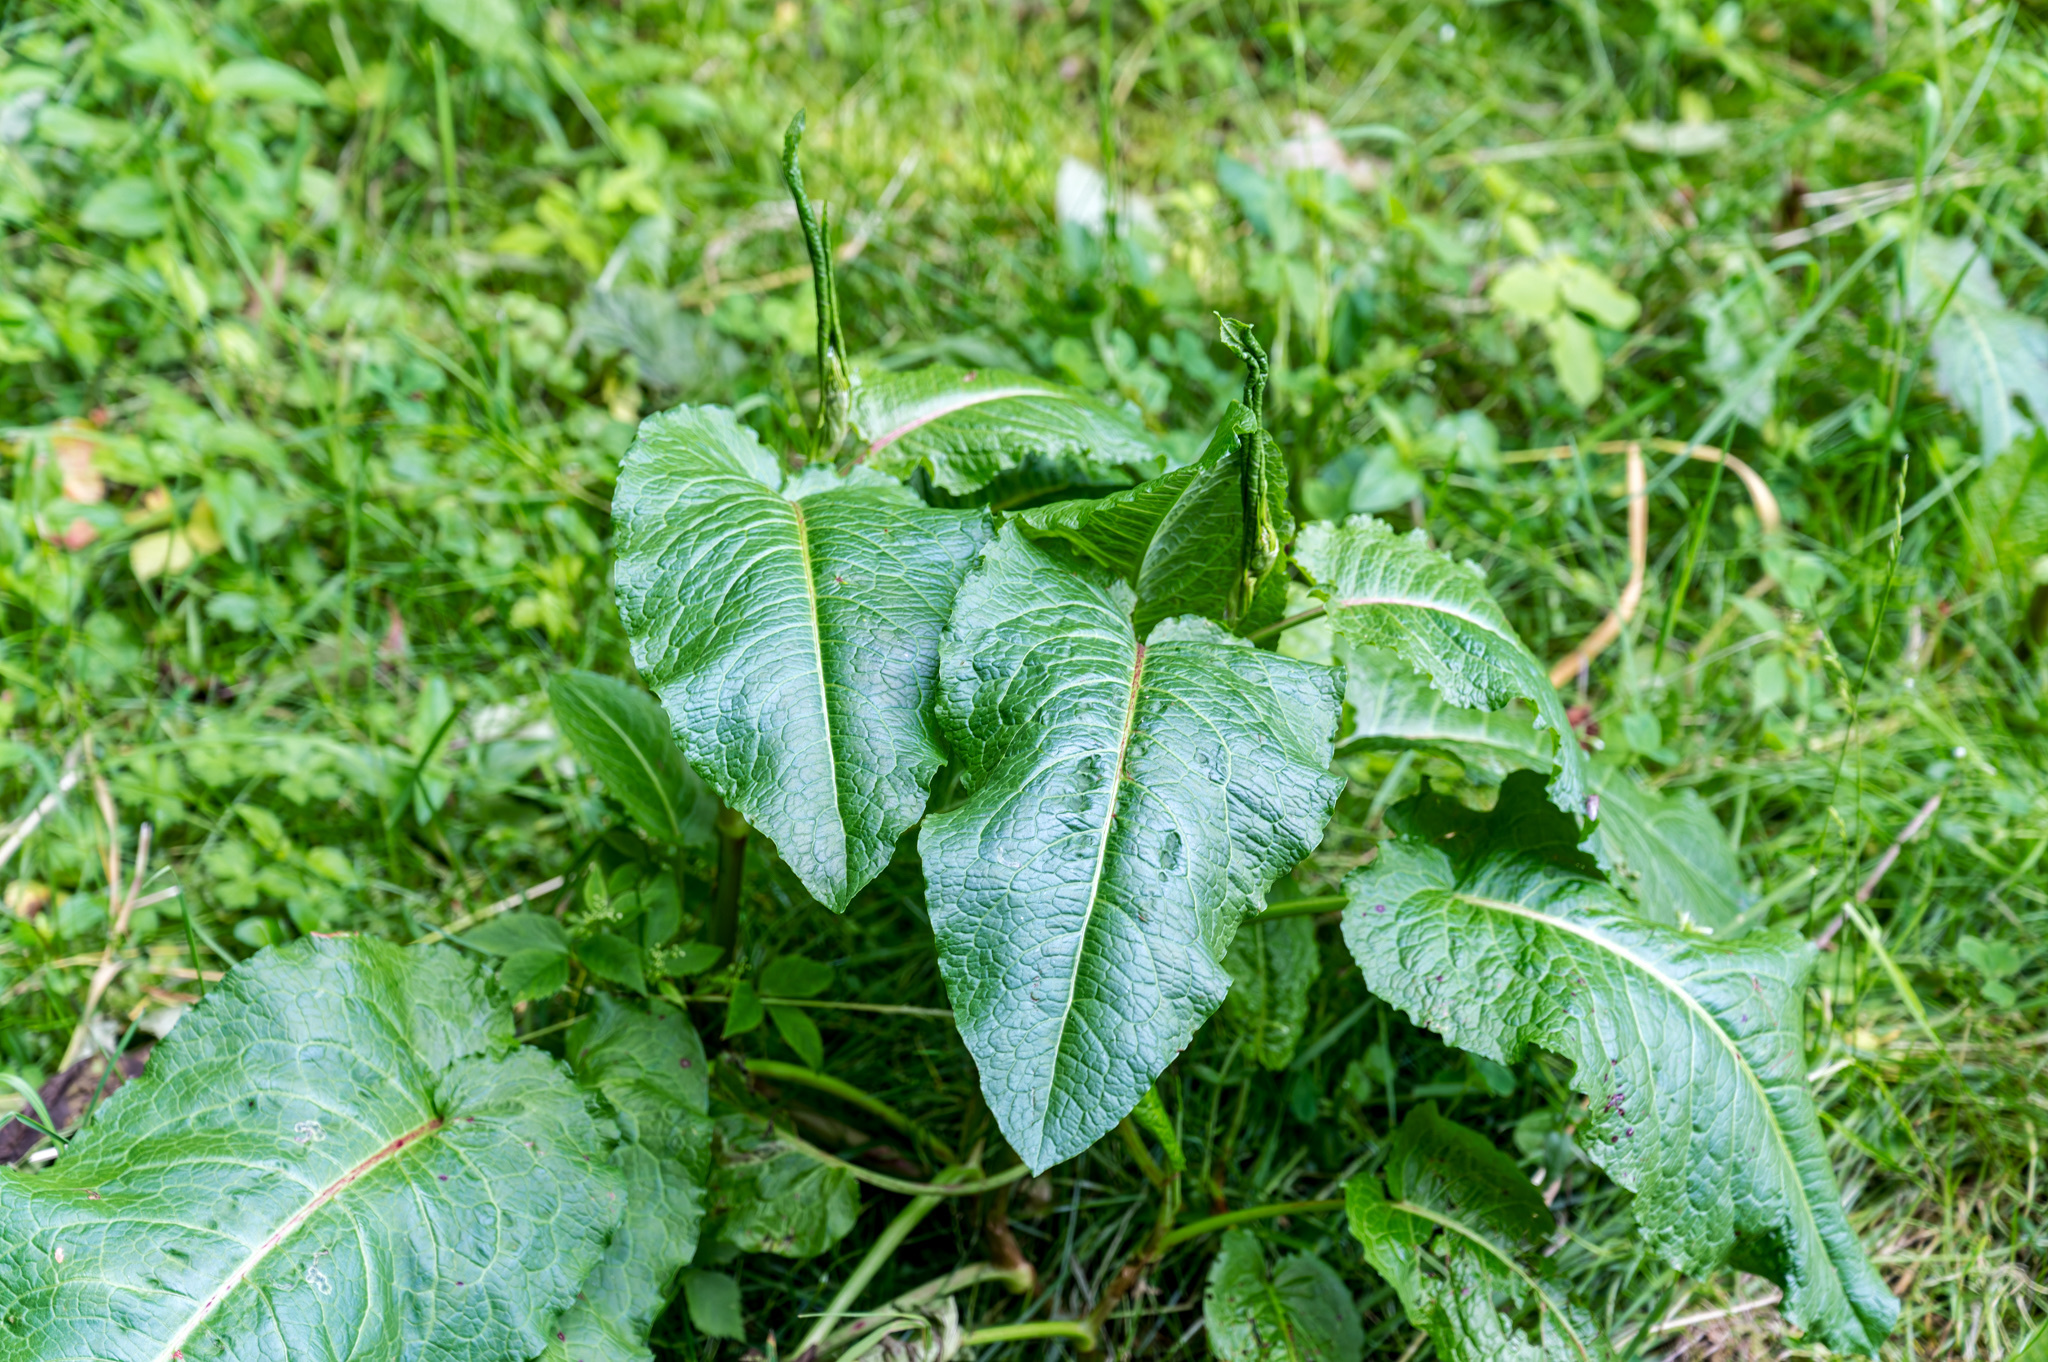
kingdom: Plantae
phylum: Tracheophyta
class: Magnoliopsida
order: Caryophyllales
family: Polygonaceae
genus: Rumex
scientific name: Rumex obtusifolius
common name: Bitter dock
